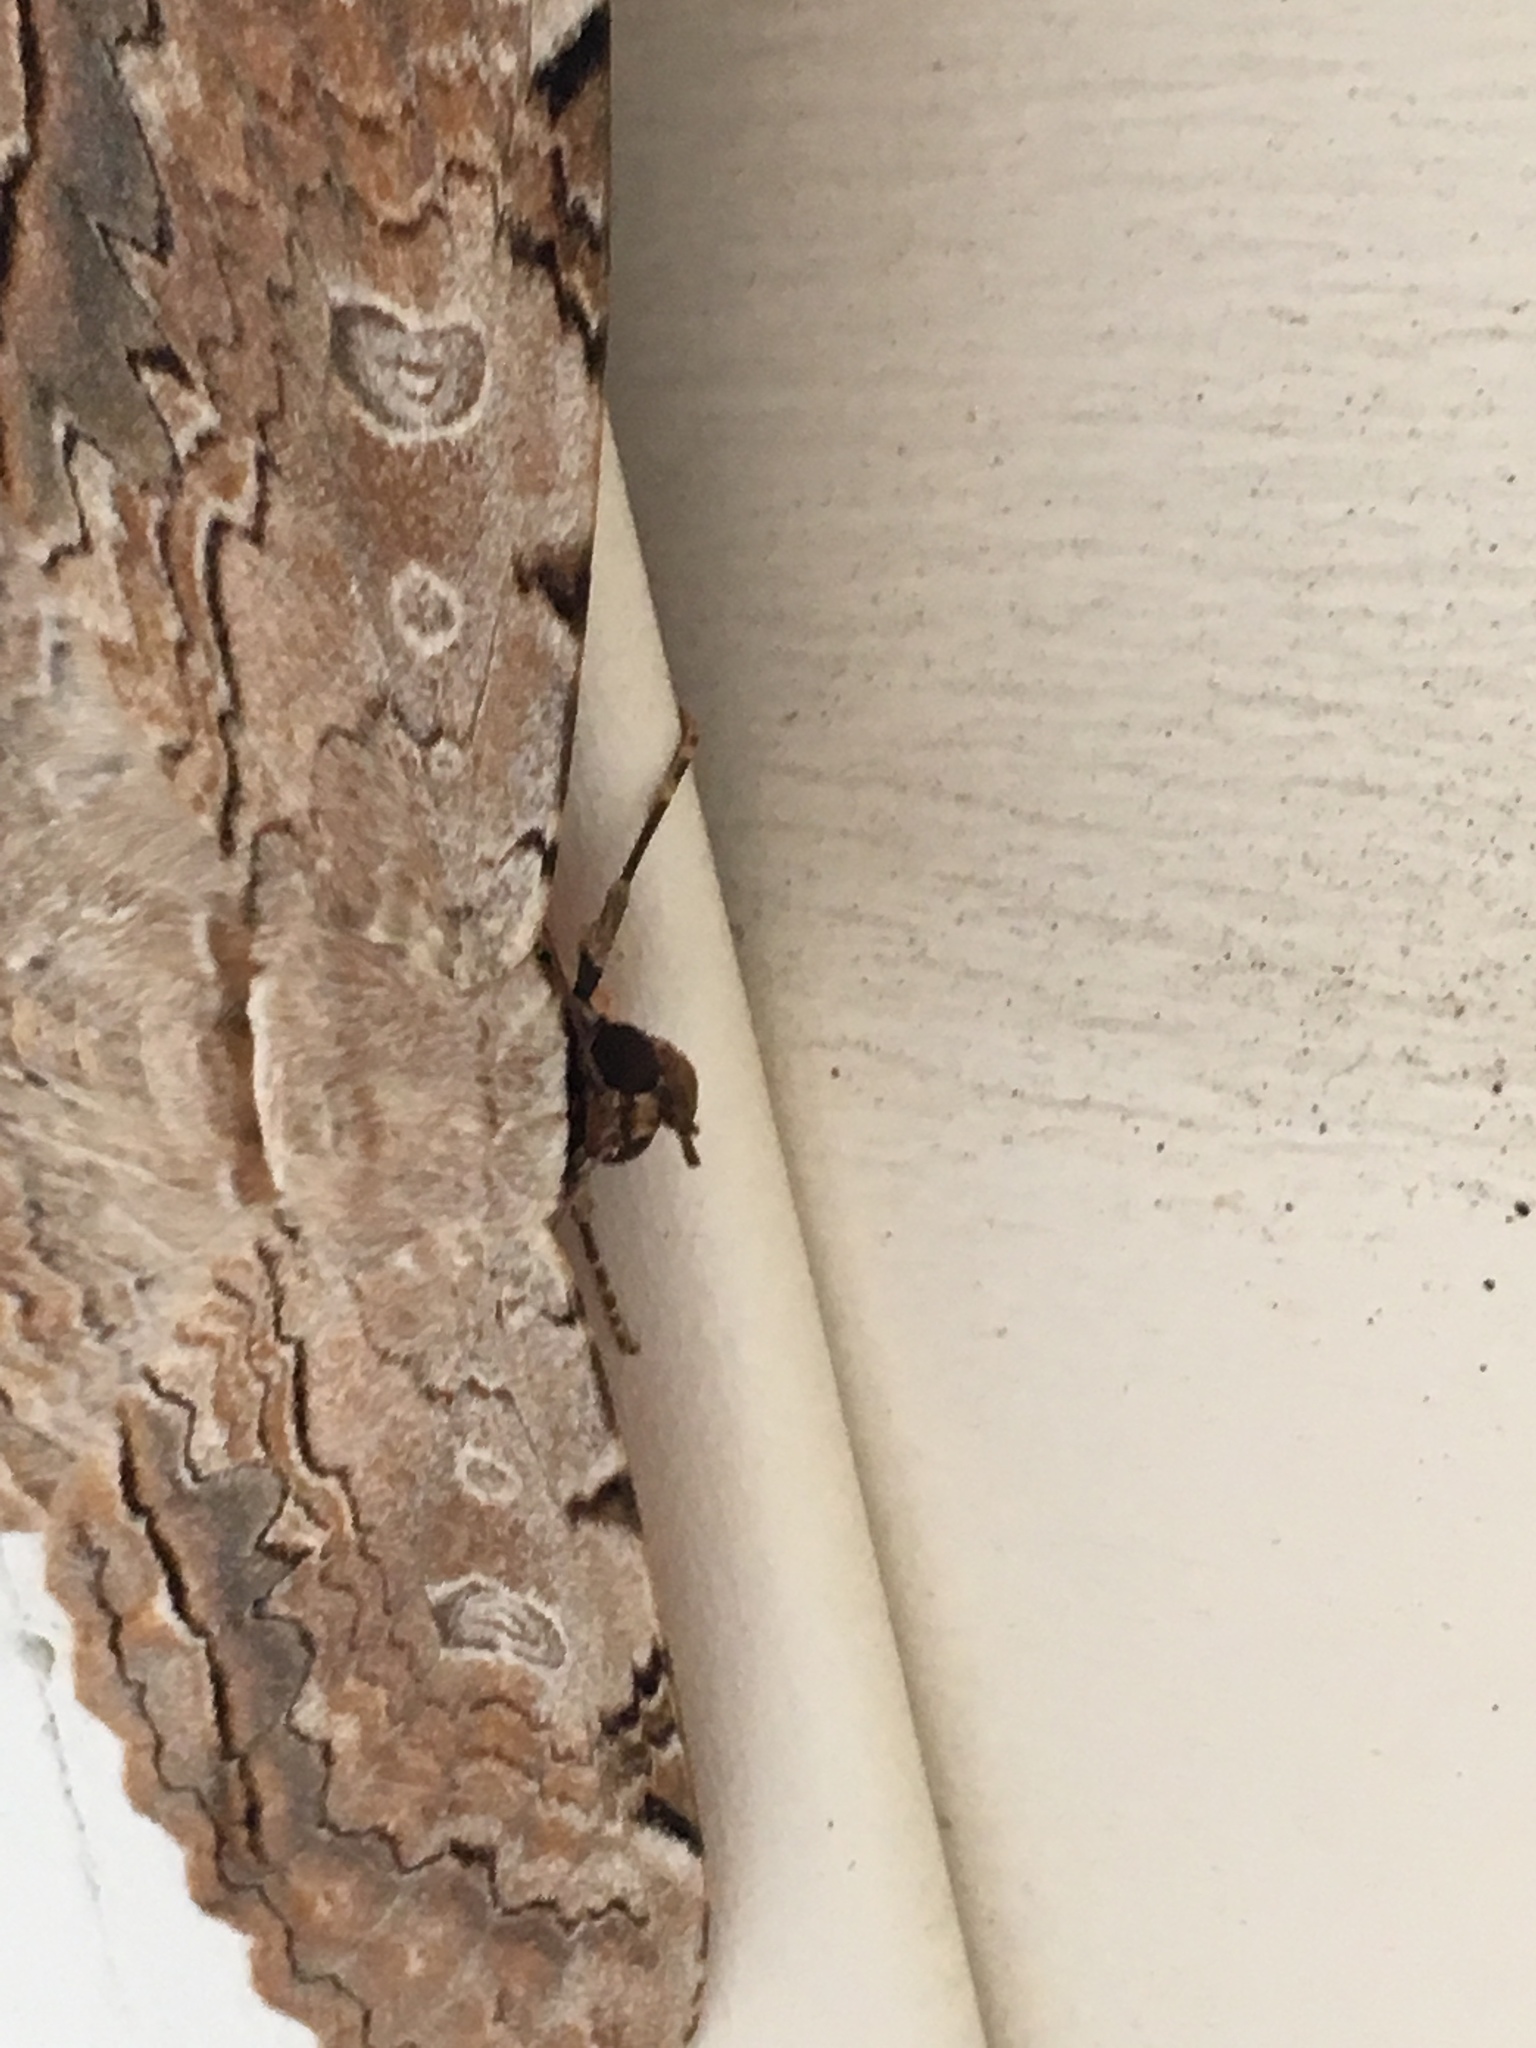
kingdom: Animalia
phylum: Arthropoda
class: Insecta
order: Lepidoptera
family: Erebidae
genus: Thysania
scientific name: Thysania zenobia
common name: Owl moth
